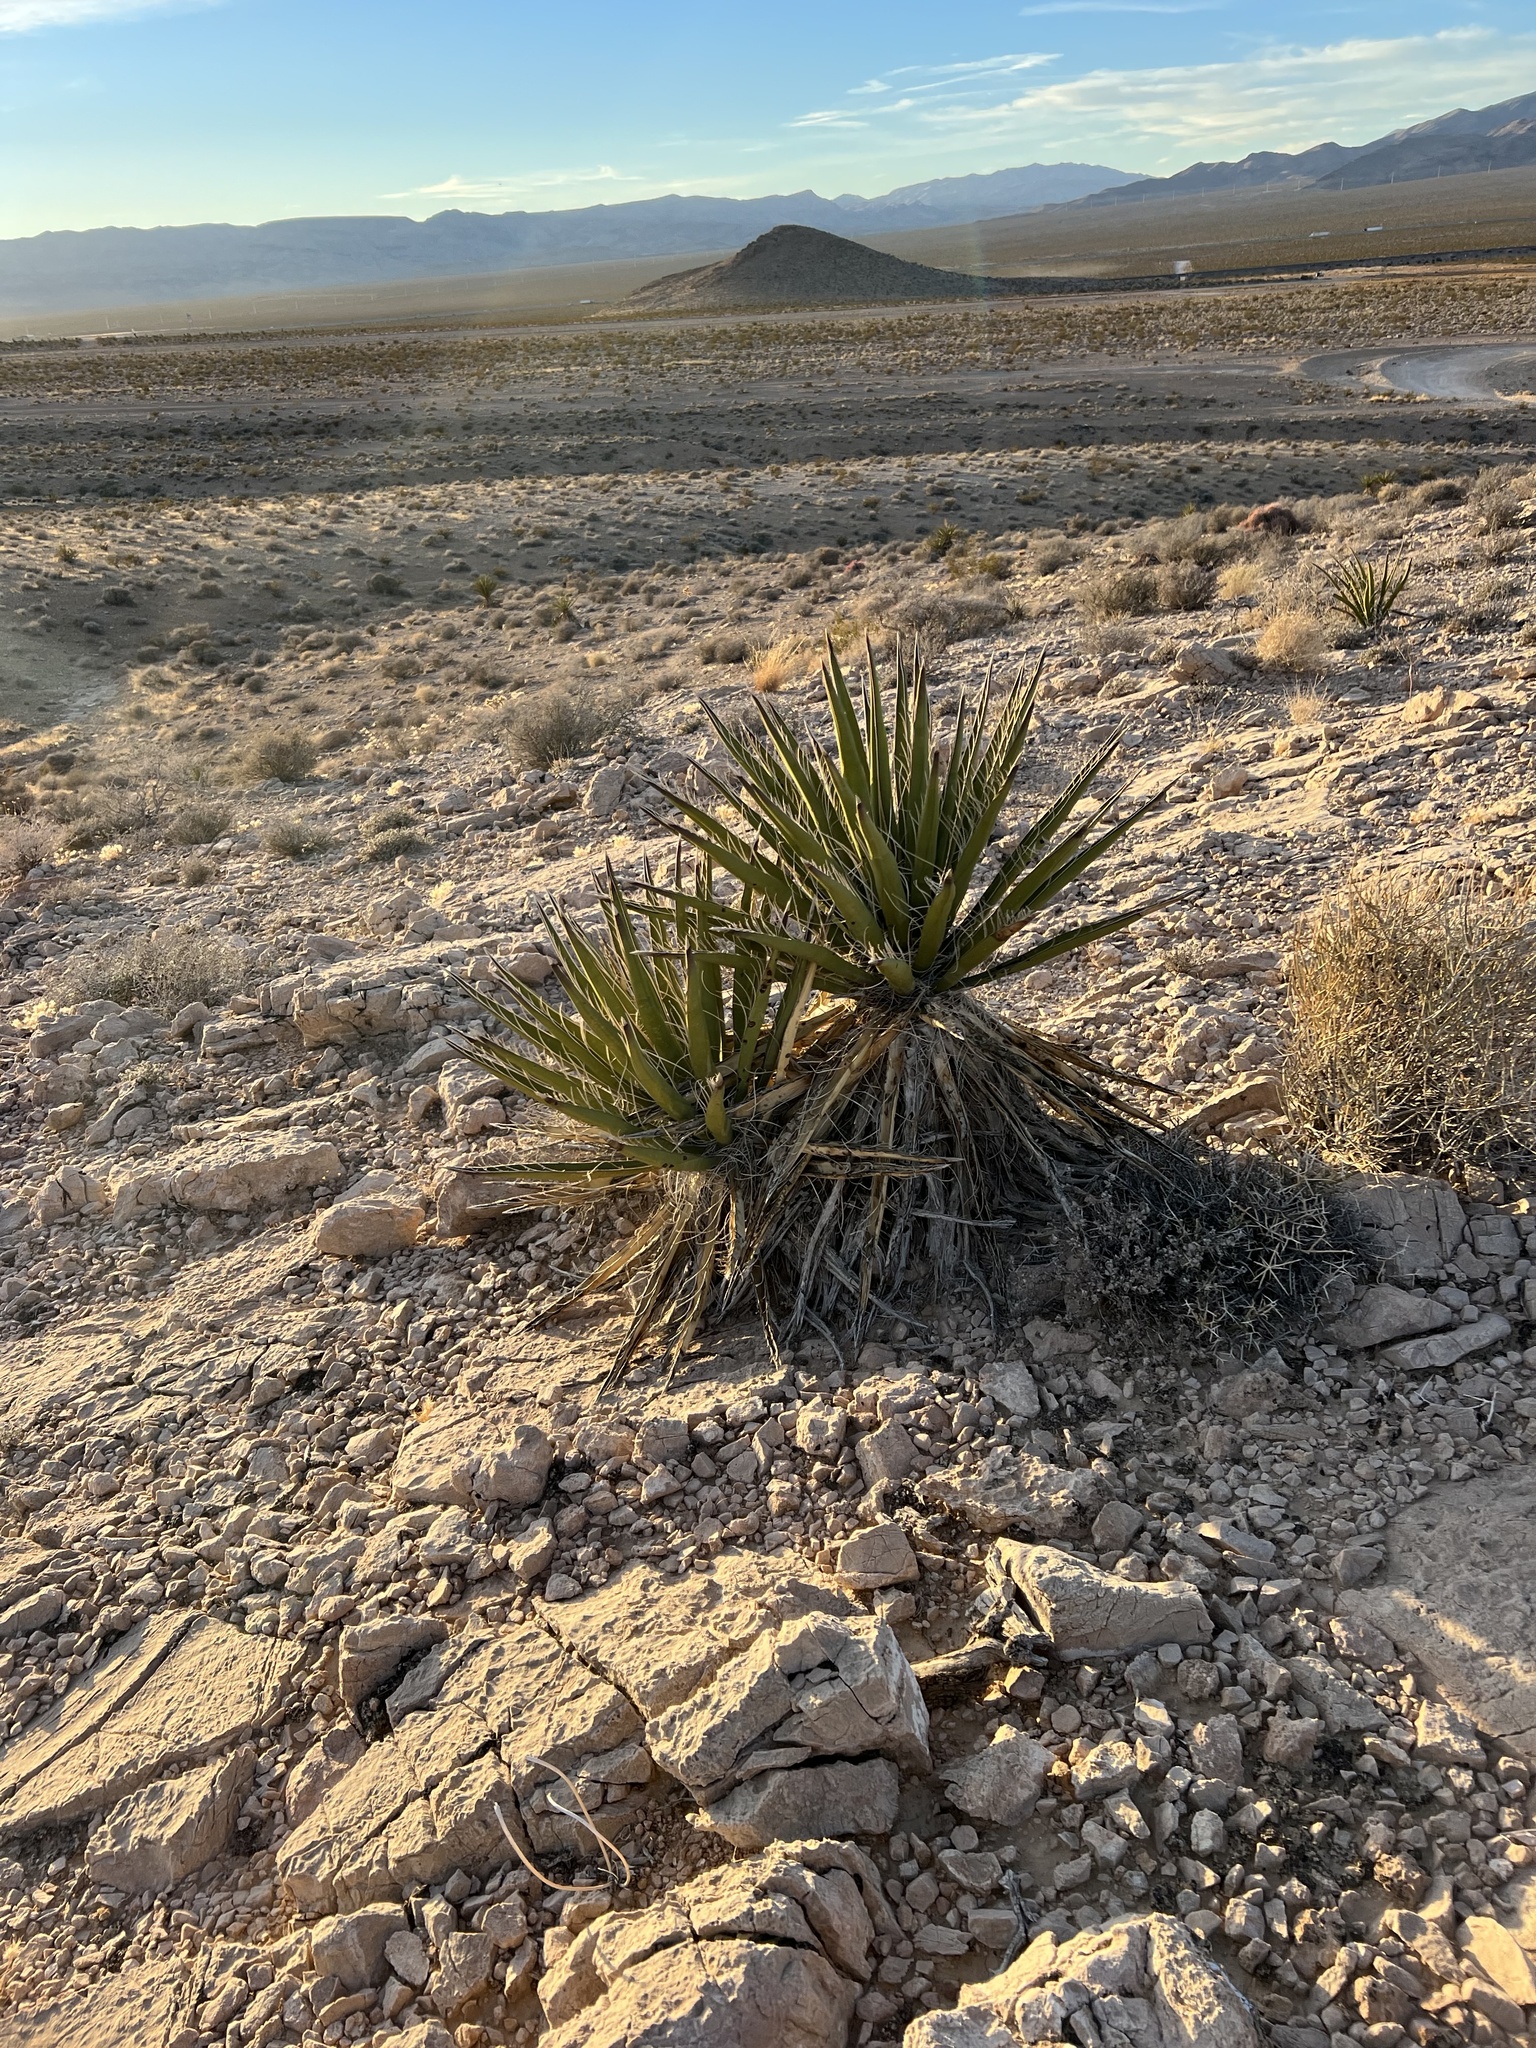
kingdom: Plantae
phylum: Tracheophyta
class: Liliopsida
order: Asparagales
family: Asparagaceae
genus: Yucca
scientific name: Yucca schidigera
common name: Mojave yucca
